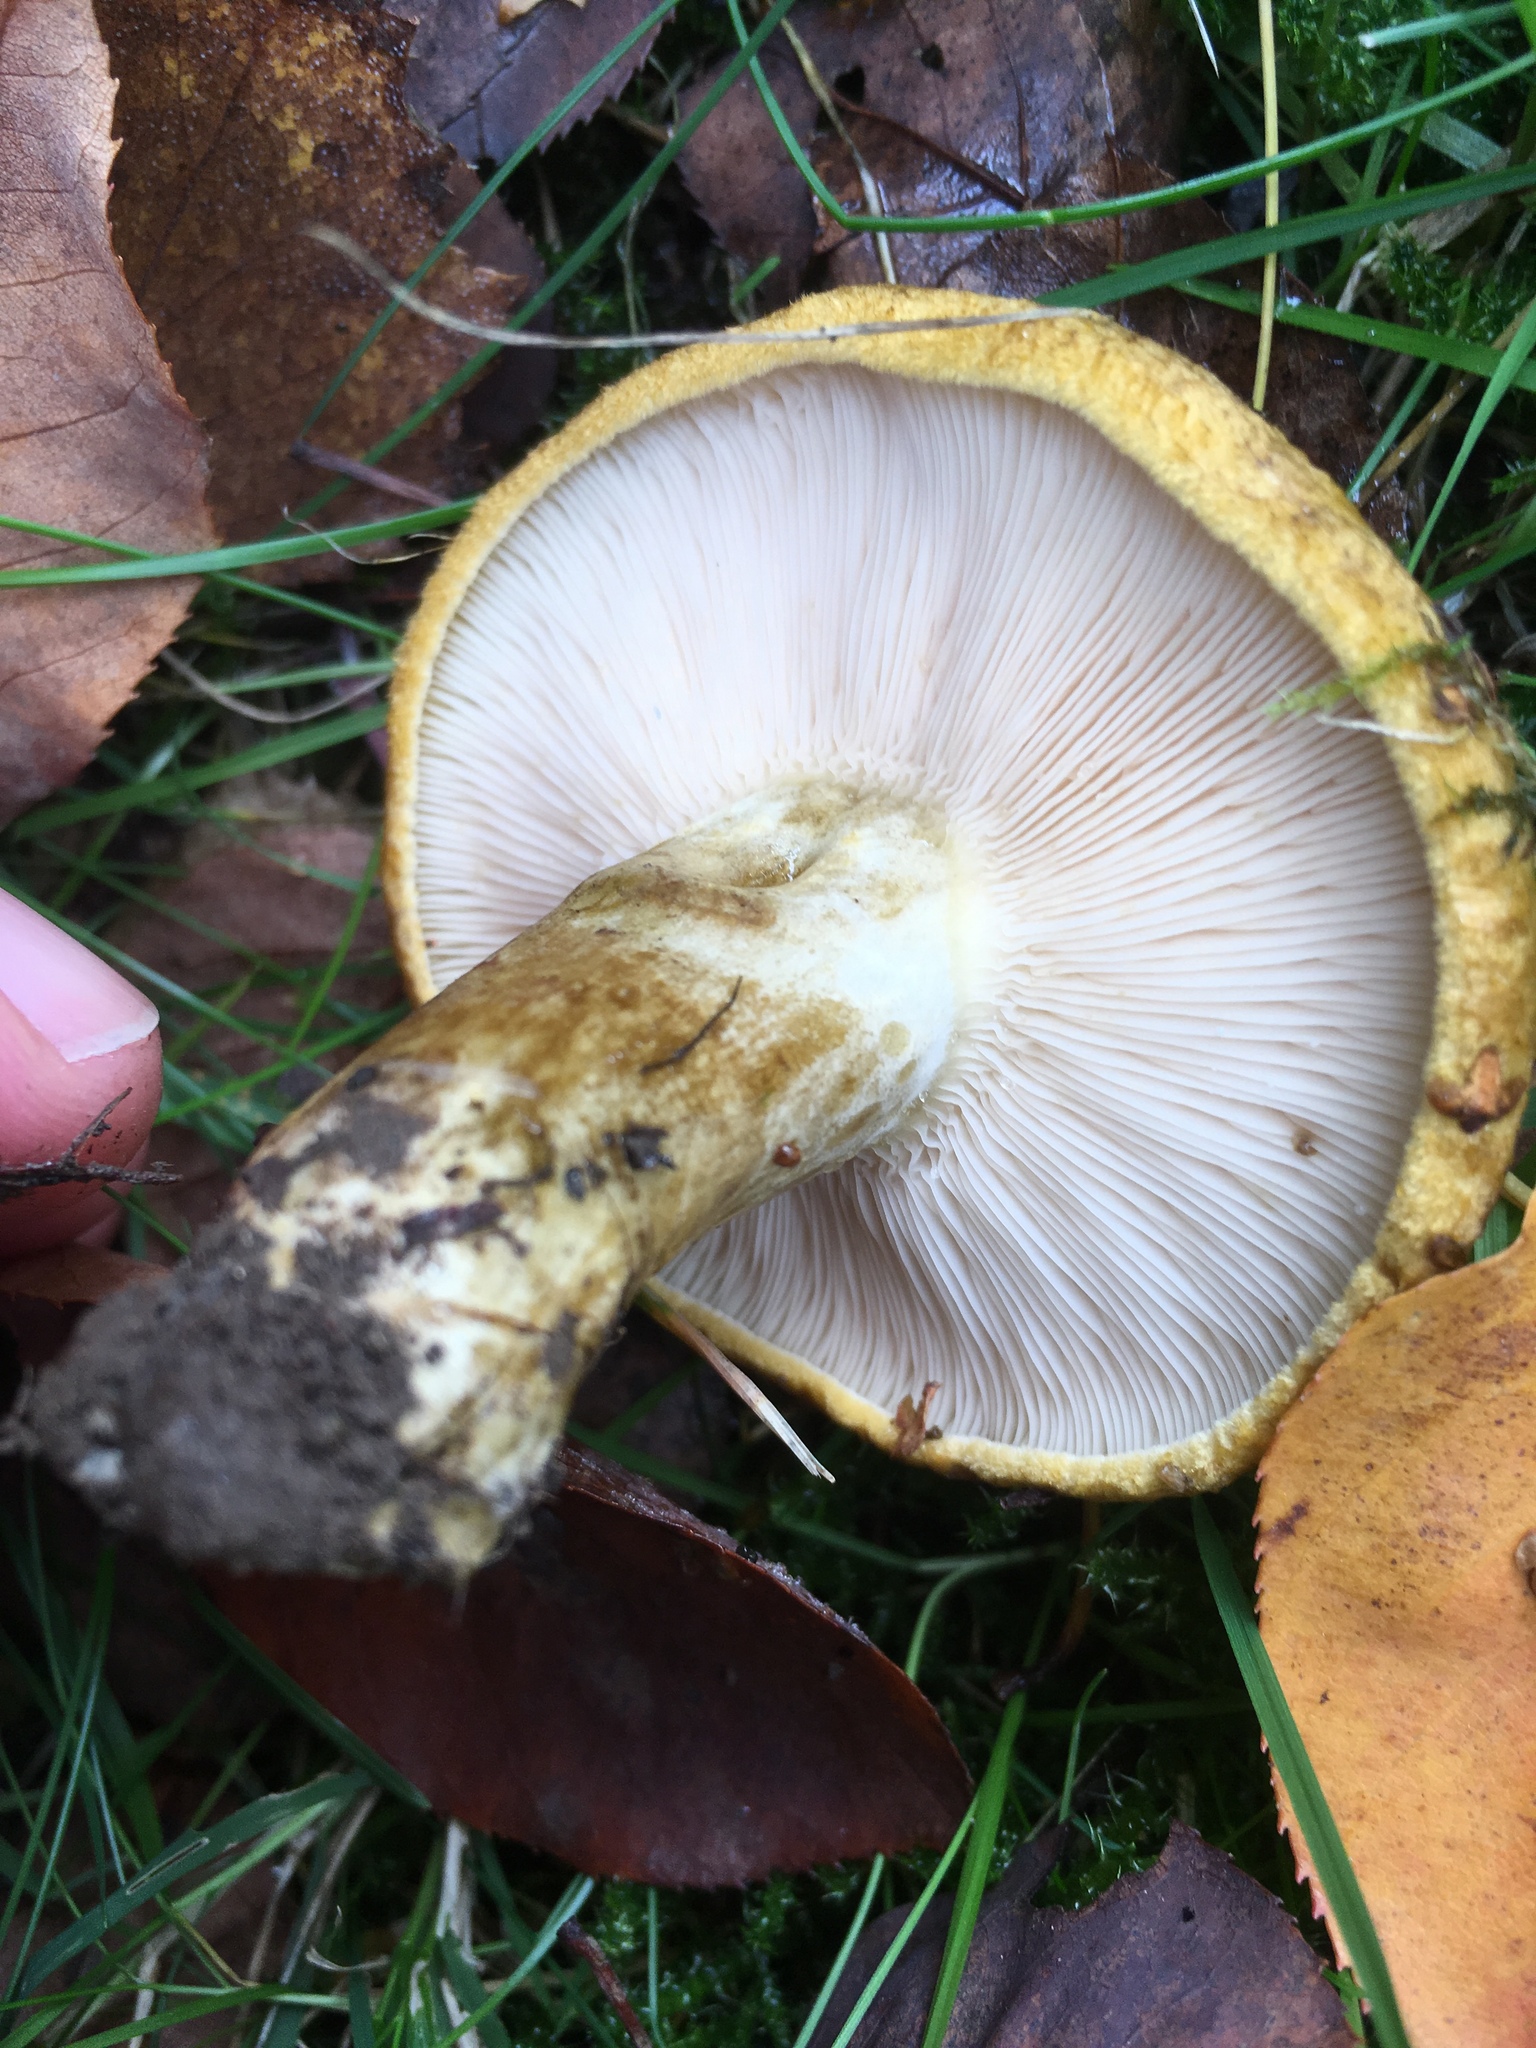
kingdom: Fungi
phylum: Basidiomycota
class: Agaricomycetes
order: Russulales
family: Russulaceae
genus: Lactarius
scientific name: Lactarius turpis
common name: Ugly milk-cap
